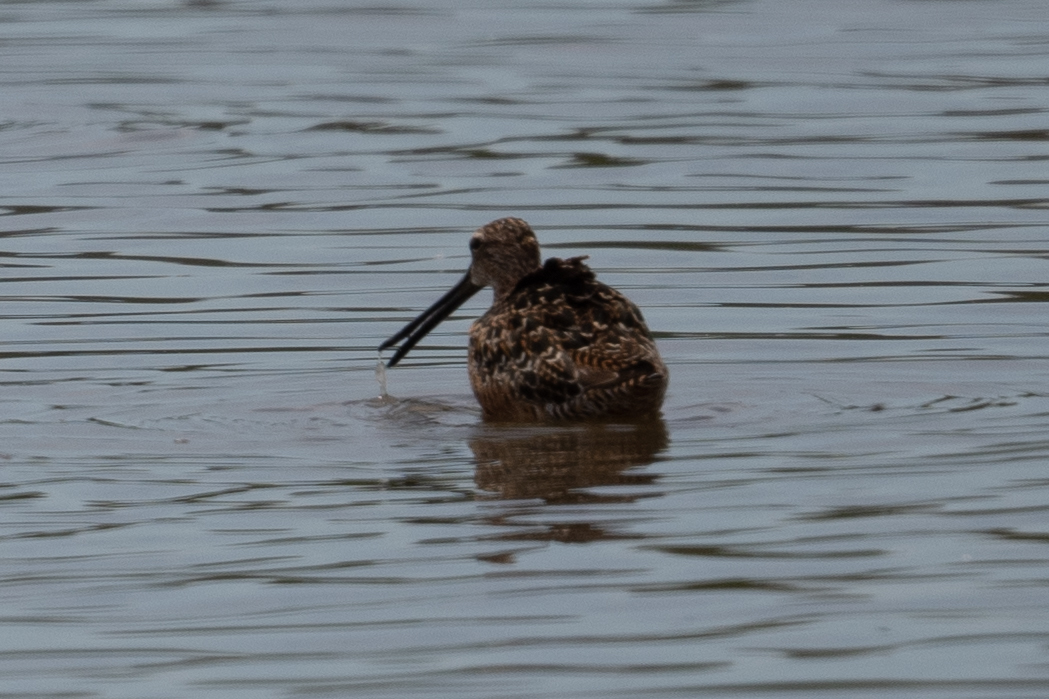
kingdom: Animalia
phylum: Chordata
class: Aves
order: Charadriiformes
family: Scolopacidae
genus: Limnodromus
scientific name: Limnodromus scolopaceus
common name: Long-billed dowitcher
